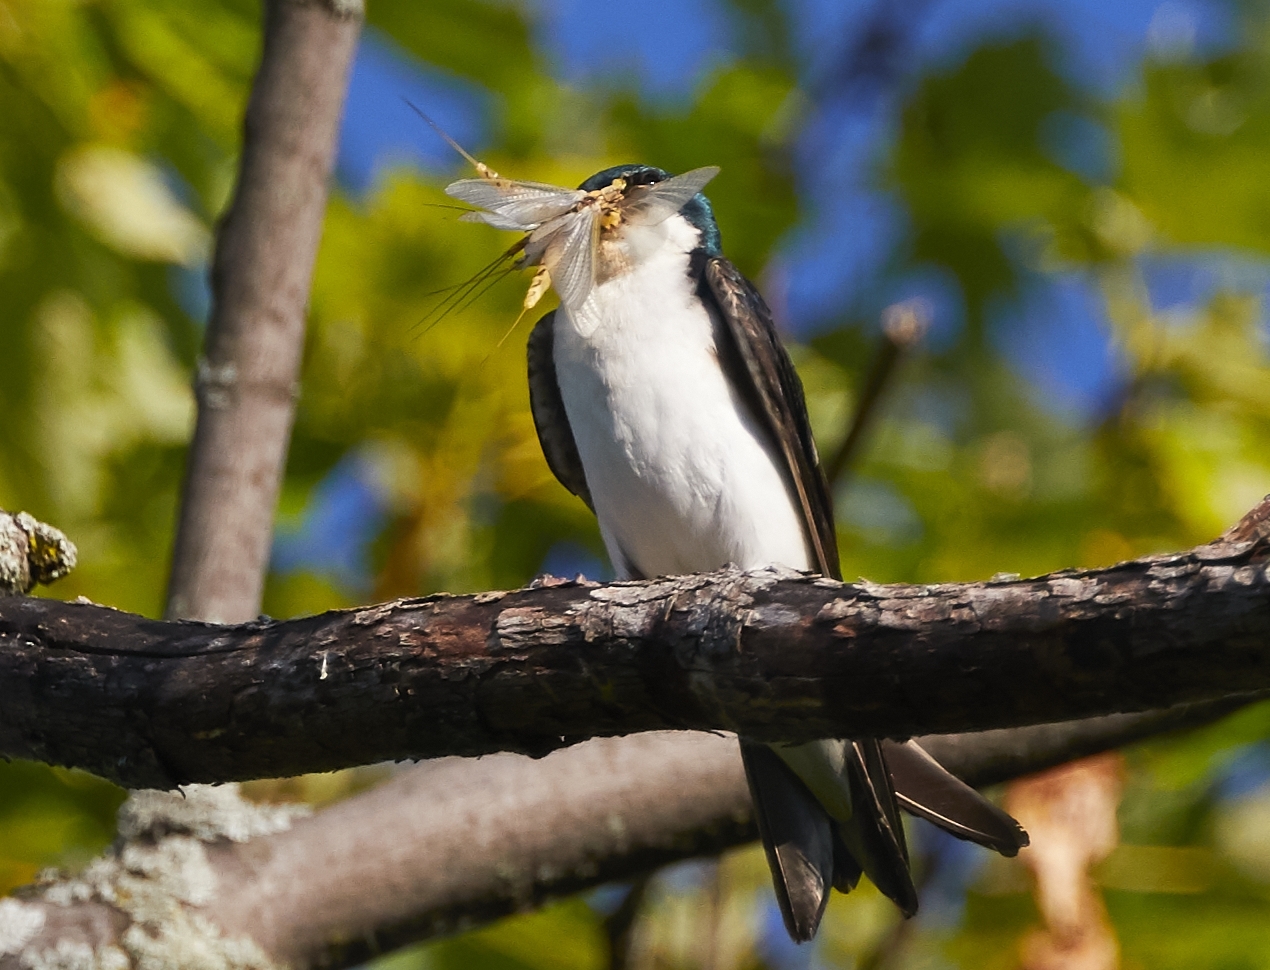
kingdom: Animalia
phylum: Chordata
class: Aves
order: Passeriformes
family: Hirundinidae
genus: Tachycineta
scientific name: Tachycineta bicolor
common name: Tree swallow
